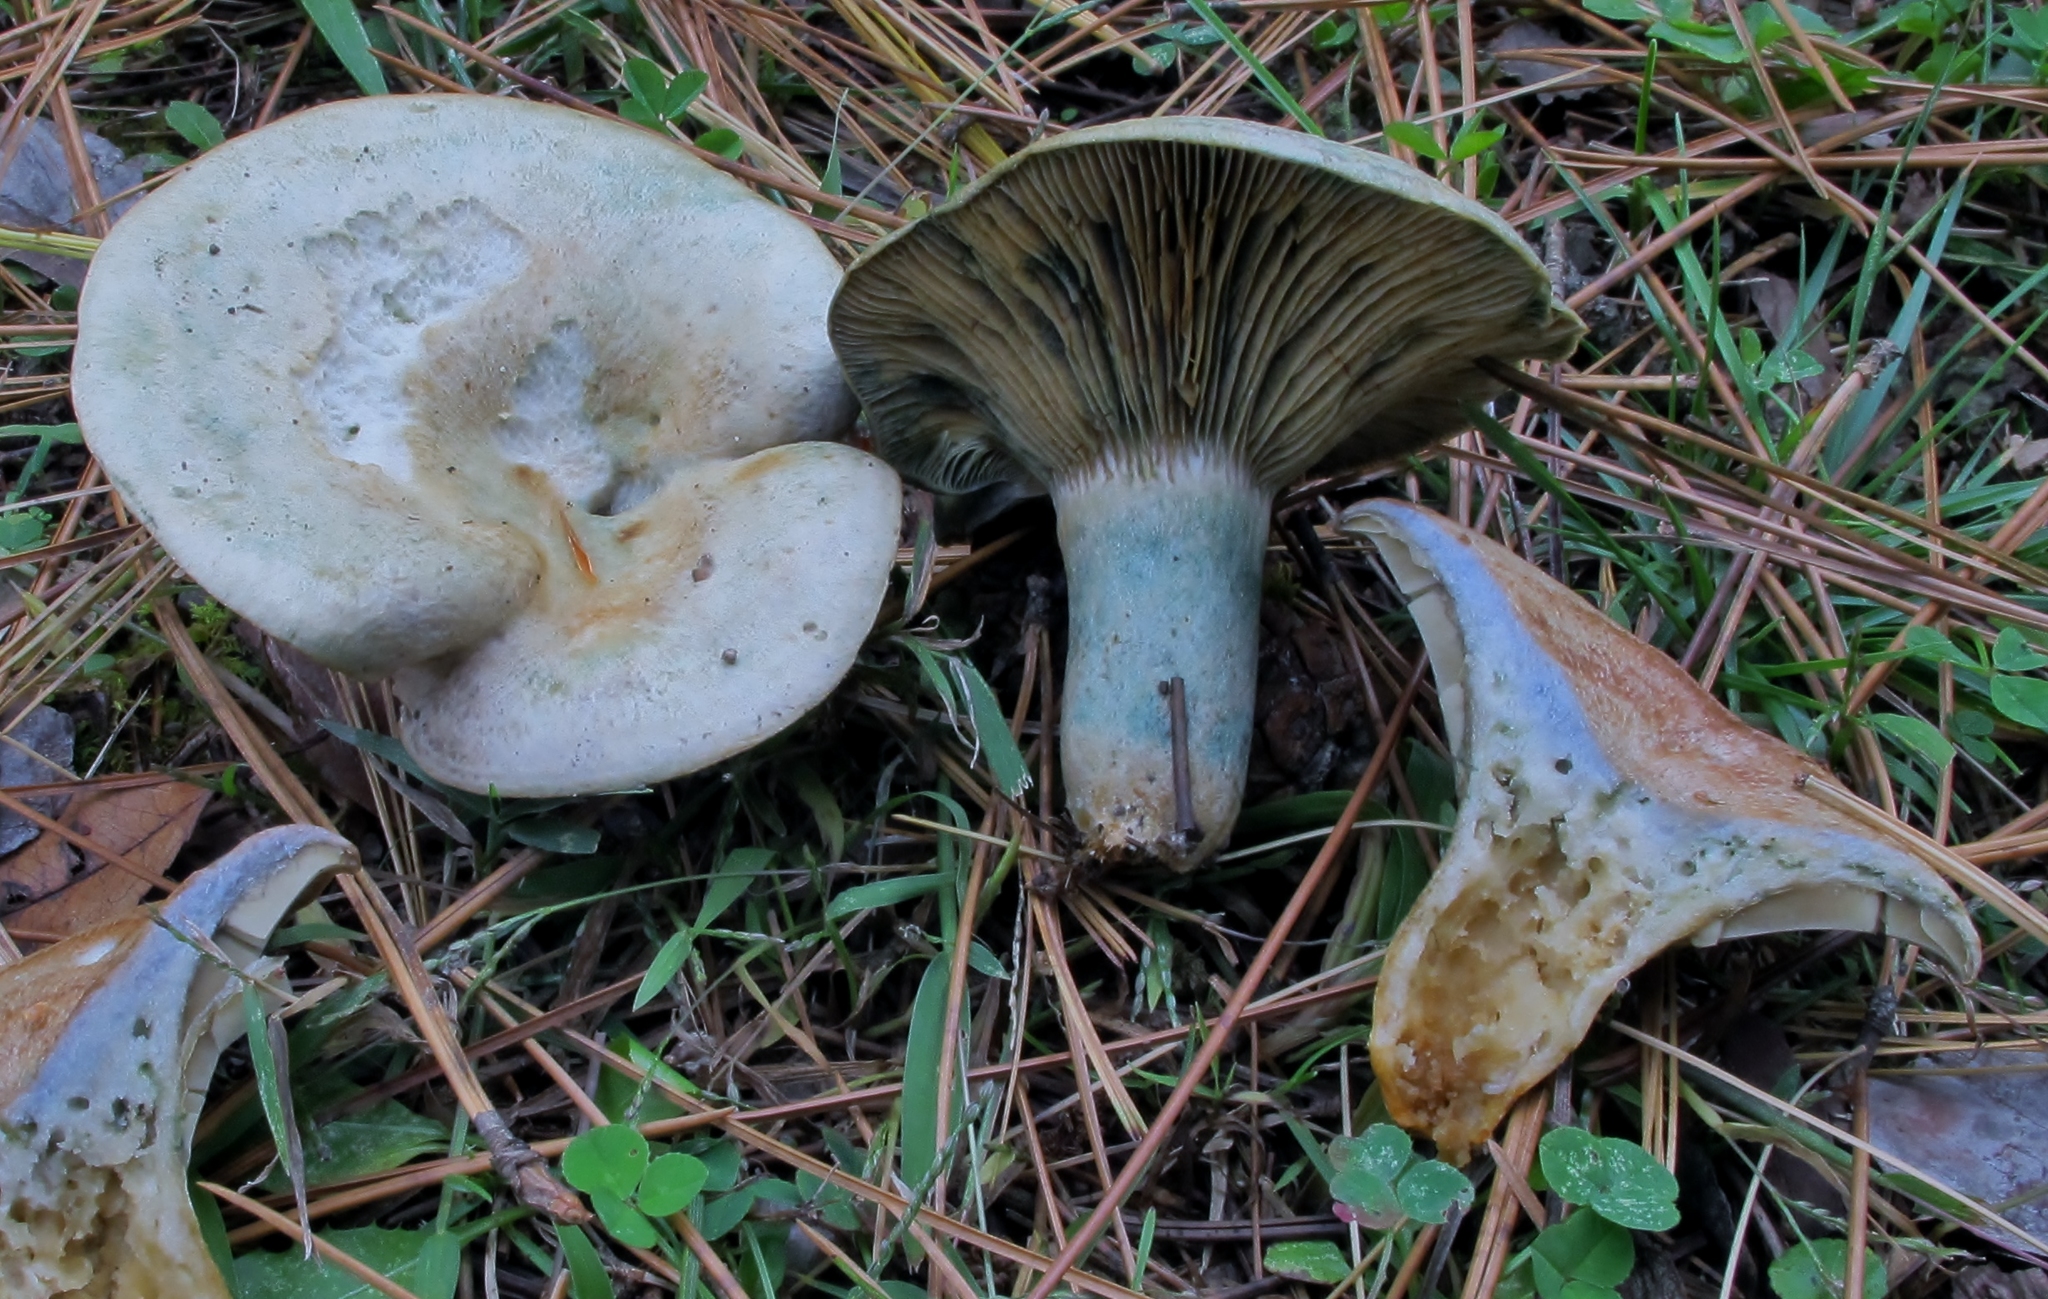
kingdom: Fungi
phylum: Basidiomycota
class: Agaricomycetes
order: Russulales
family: Russulaceae
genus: Lactarius
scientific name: Lactarius chelidonium
